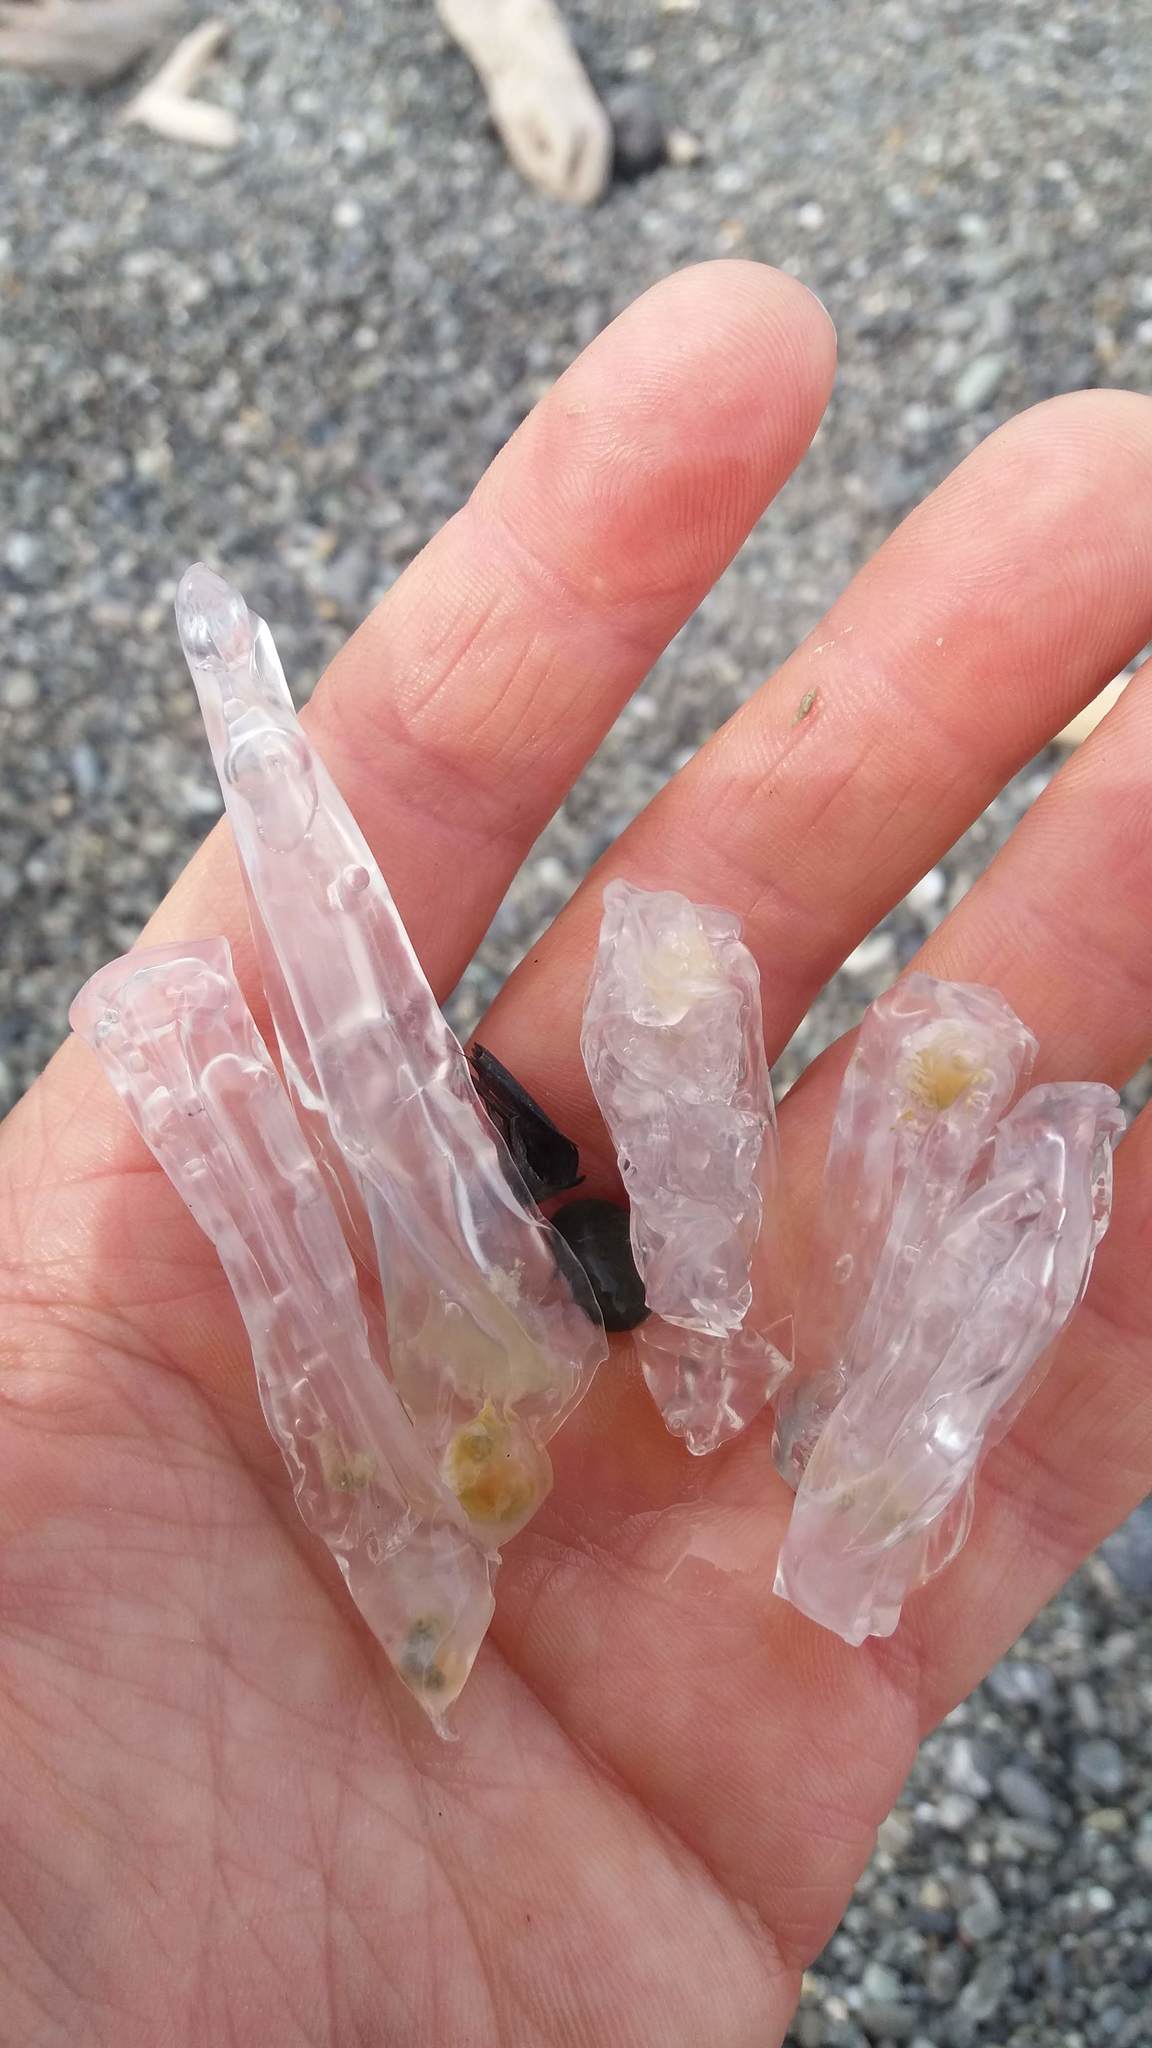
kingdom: Animalia
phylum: Chordata
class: Thaliacea
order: Salpida
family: Salpidae
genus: Soestia
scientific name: Soestia zonaria
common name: Deepsea solitary salp
